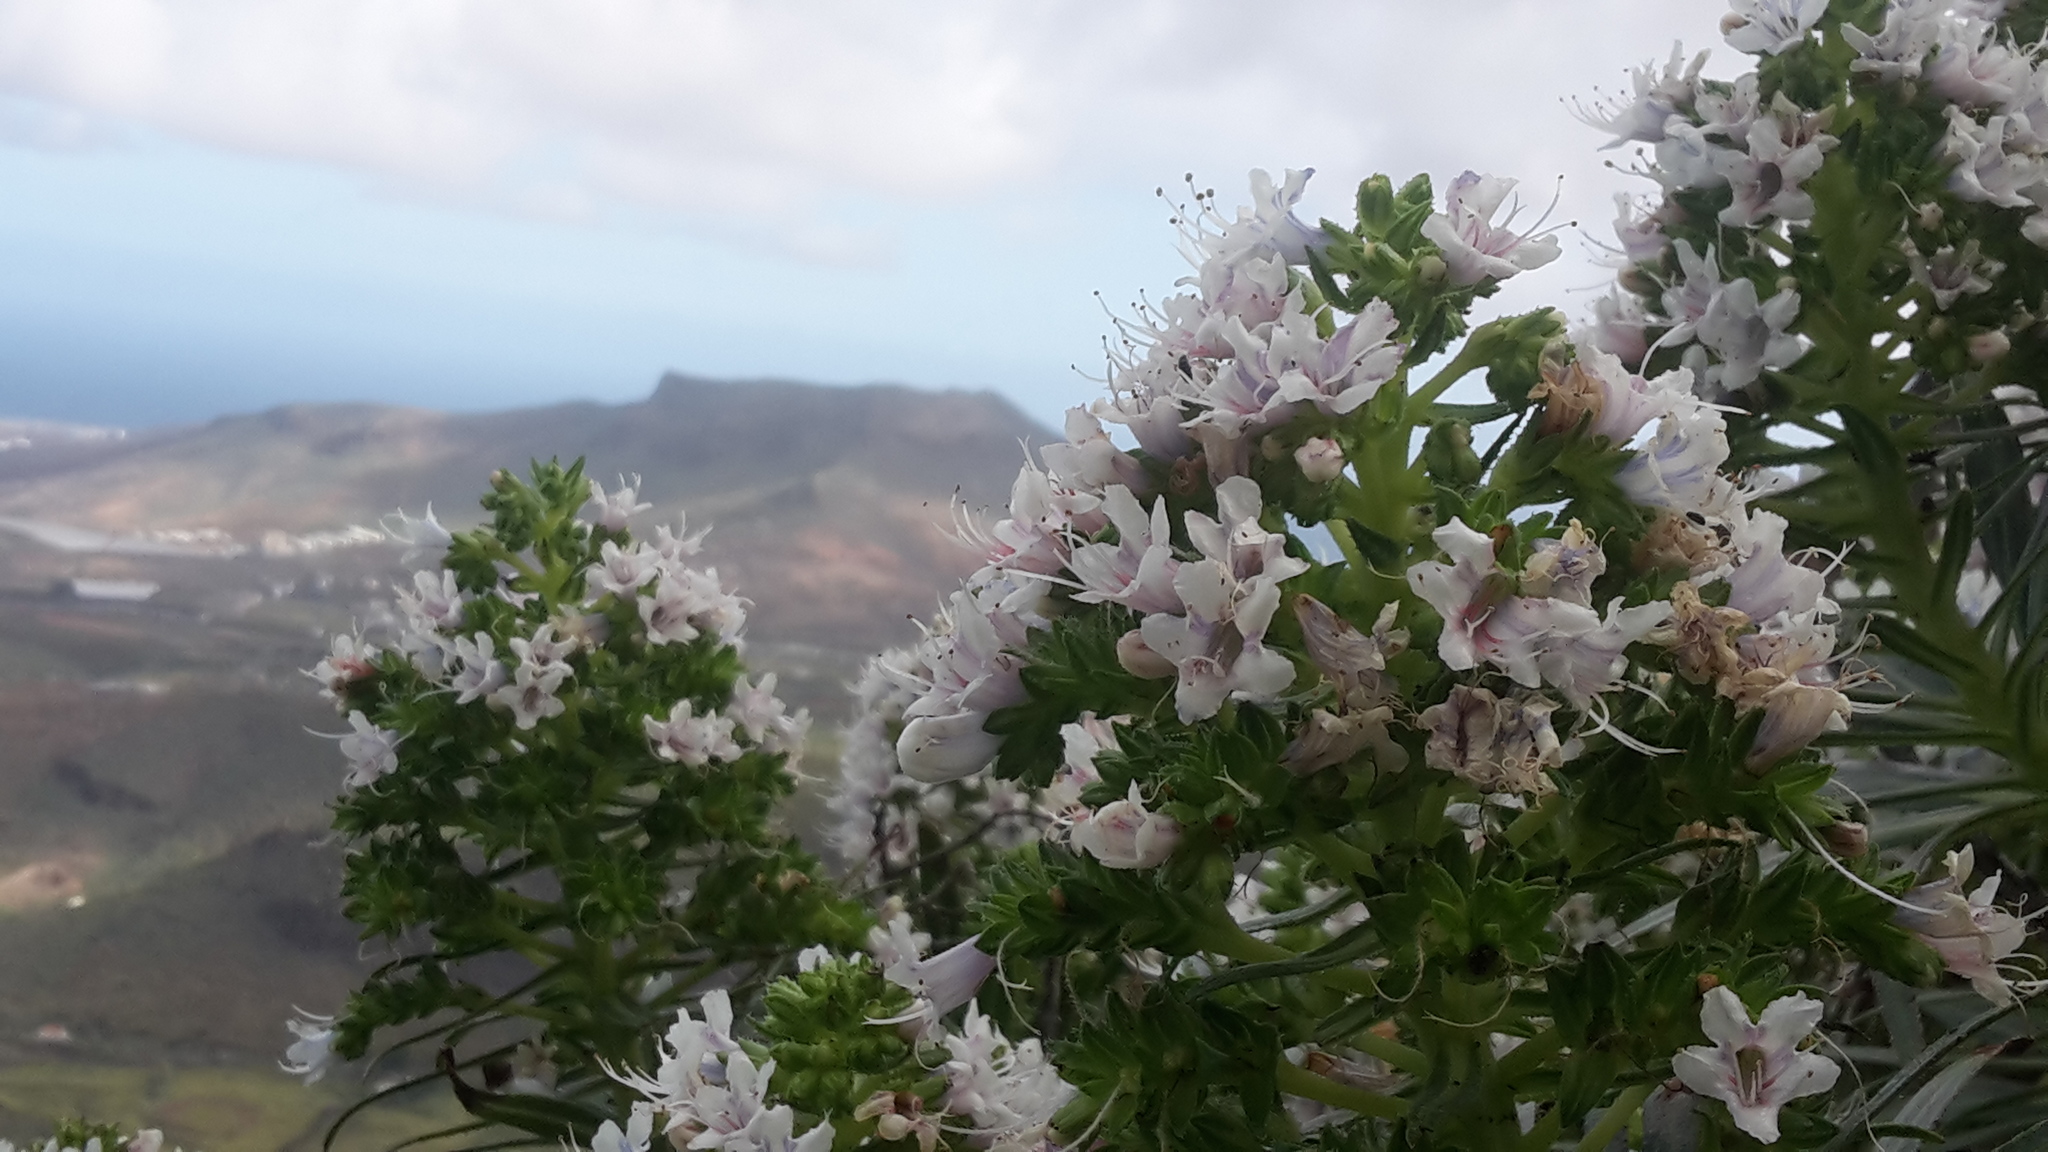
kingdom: Plantae
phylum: Tracheophyta
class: Magnoliopsida
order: Boraginales
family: Boraginaceae
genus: Echium
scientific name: Echium decaisnei
